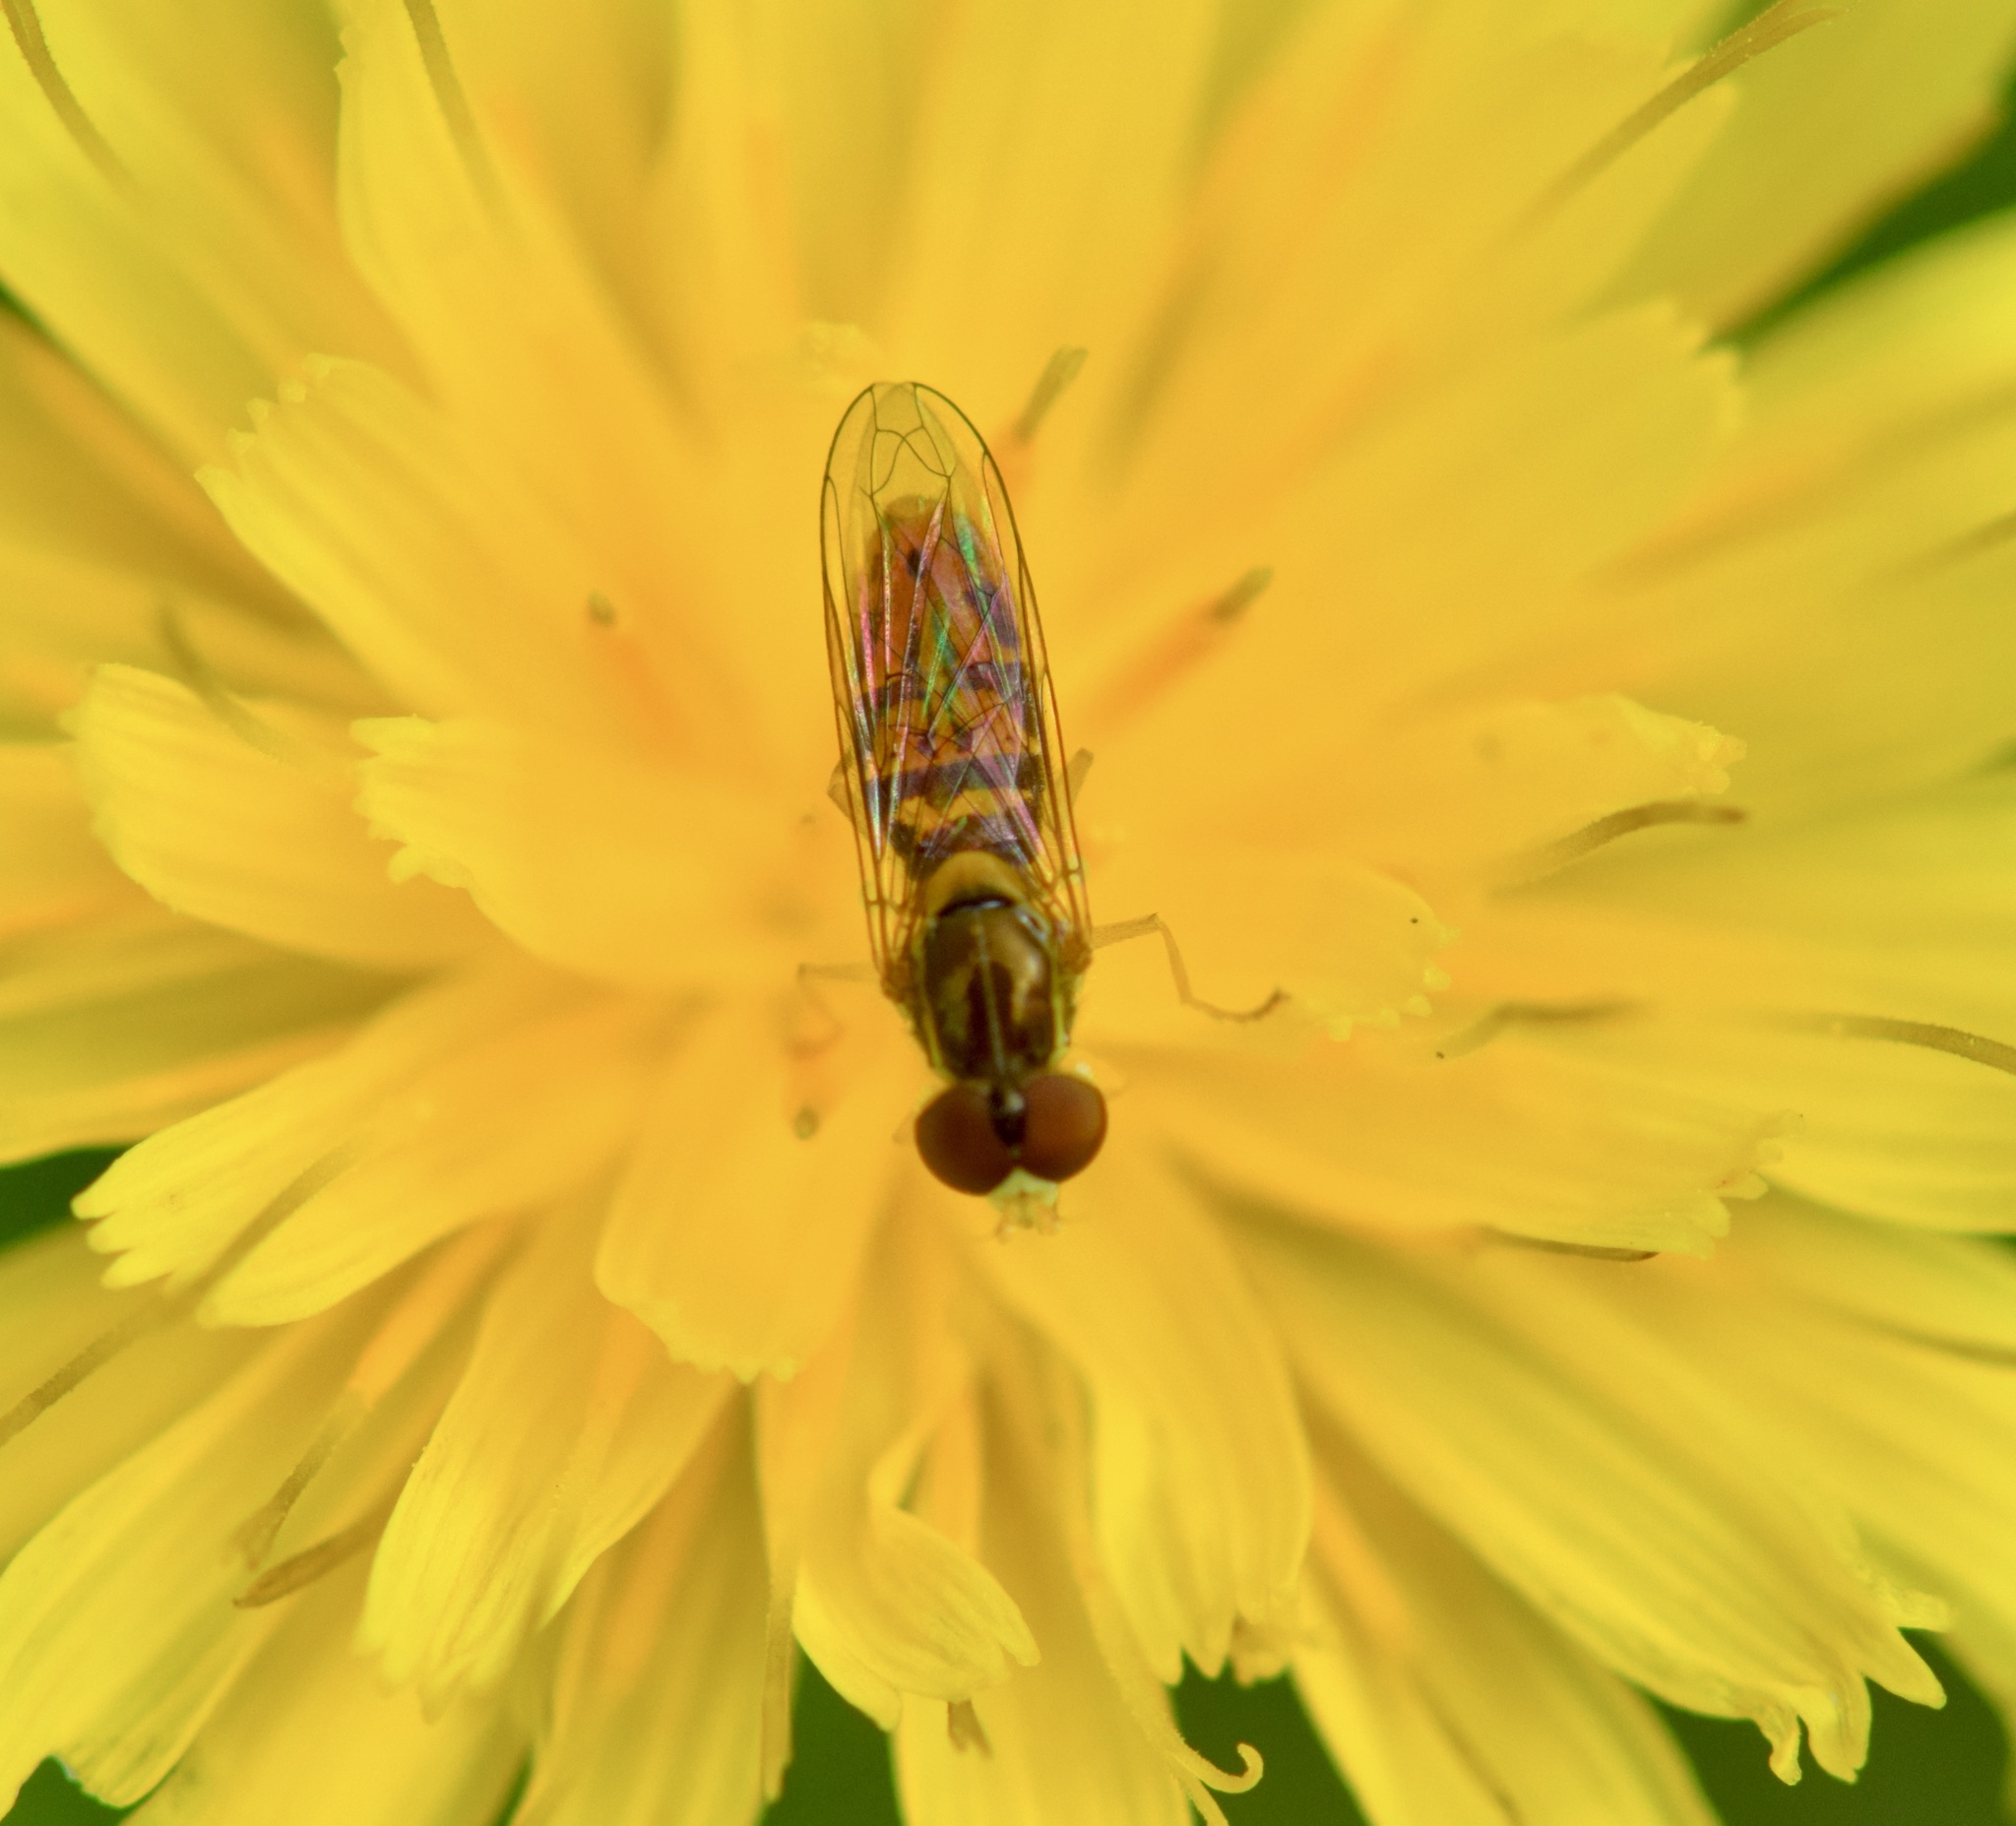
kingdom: Animalia
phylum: Arthropoda
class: Insecta
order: Diptera
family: Syrphidae
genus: Toxomerus
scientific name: Toxomerus marginatus
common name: Syrphid fly
